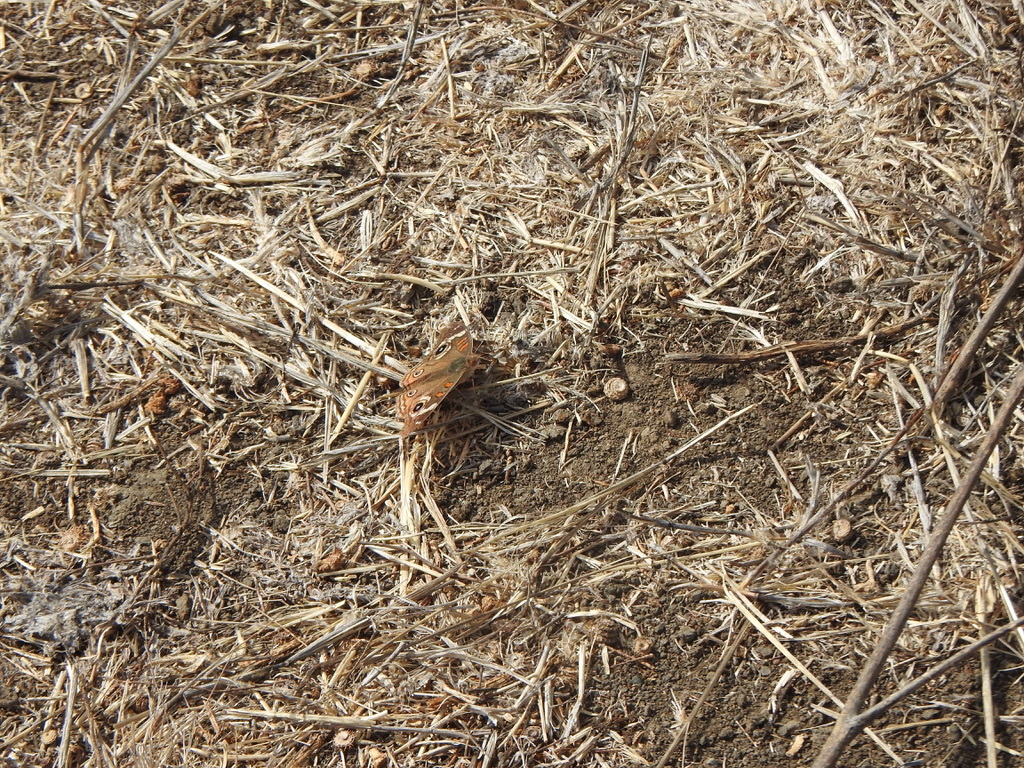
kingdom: Animalia
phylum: Arthropoda
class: Insecta
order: Lepidoptera
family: Nymphalidae
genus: Junonia
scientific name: Junonia grisea
